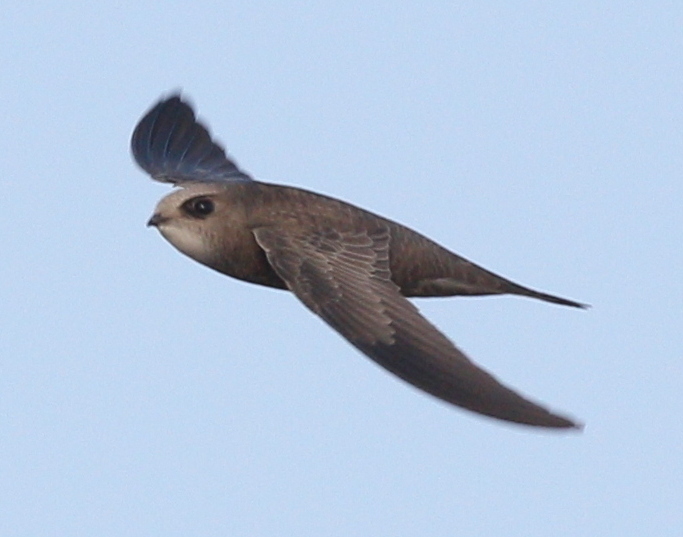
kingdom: Animalia
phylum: Chordata
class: Aves
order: Apodiformes
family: Apodidae
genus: Apus
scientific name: Apus pallidus
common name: Pallid swift
